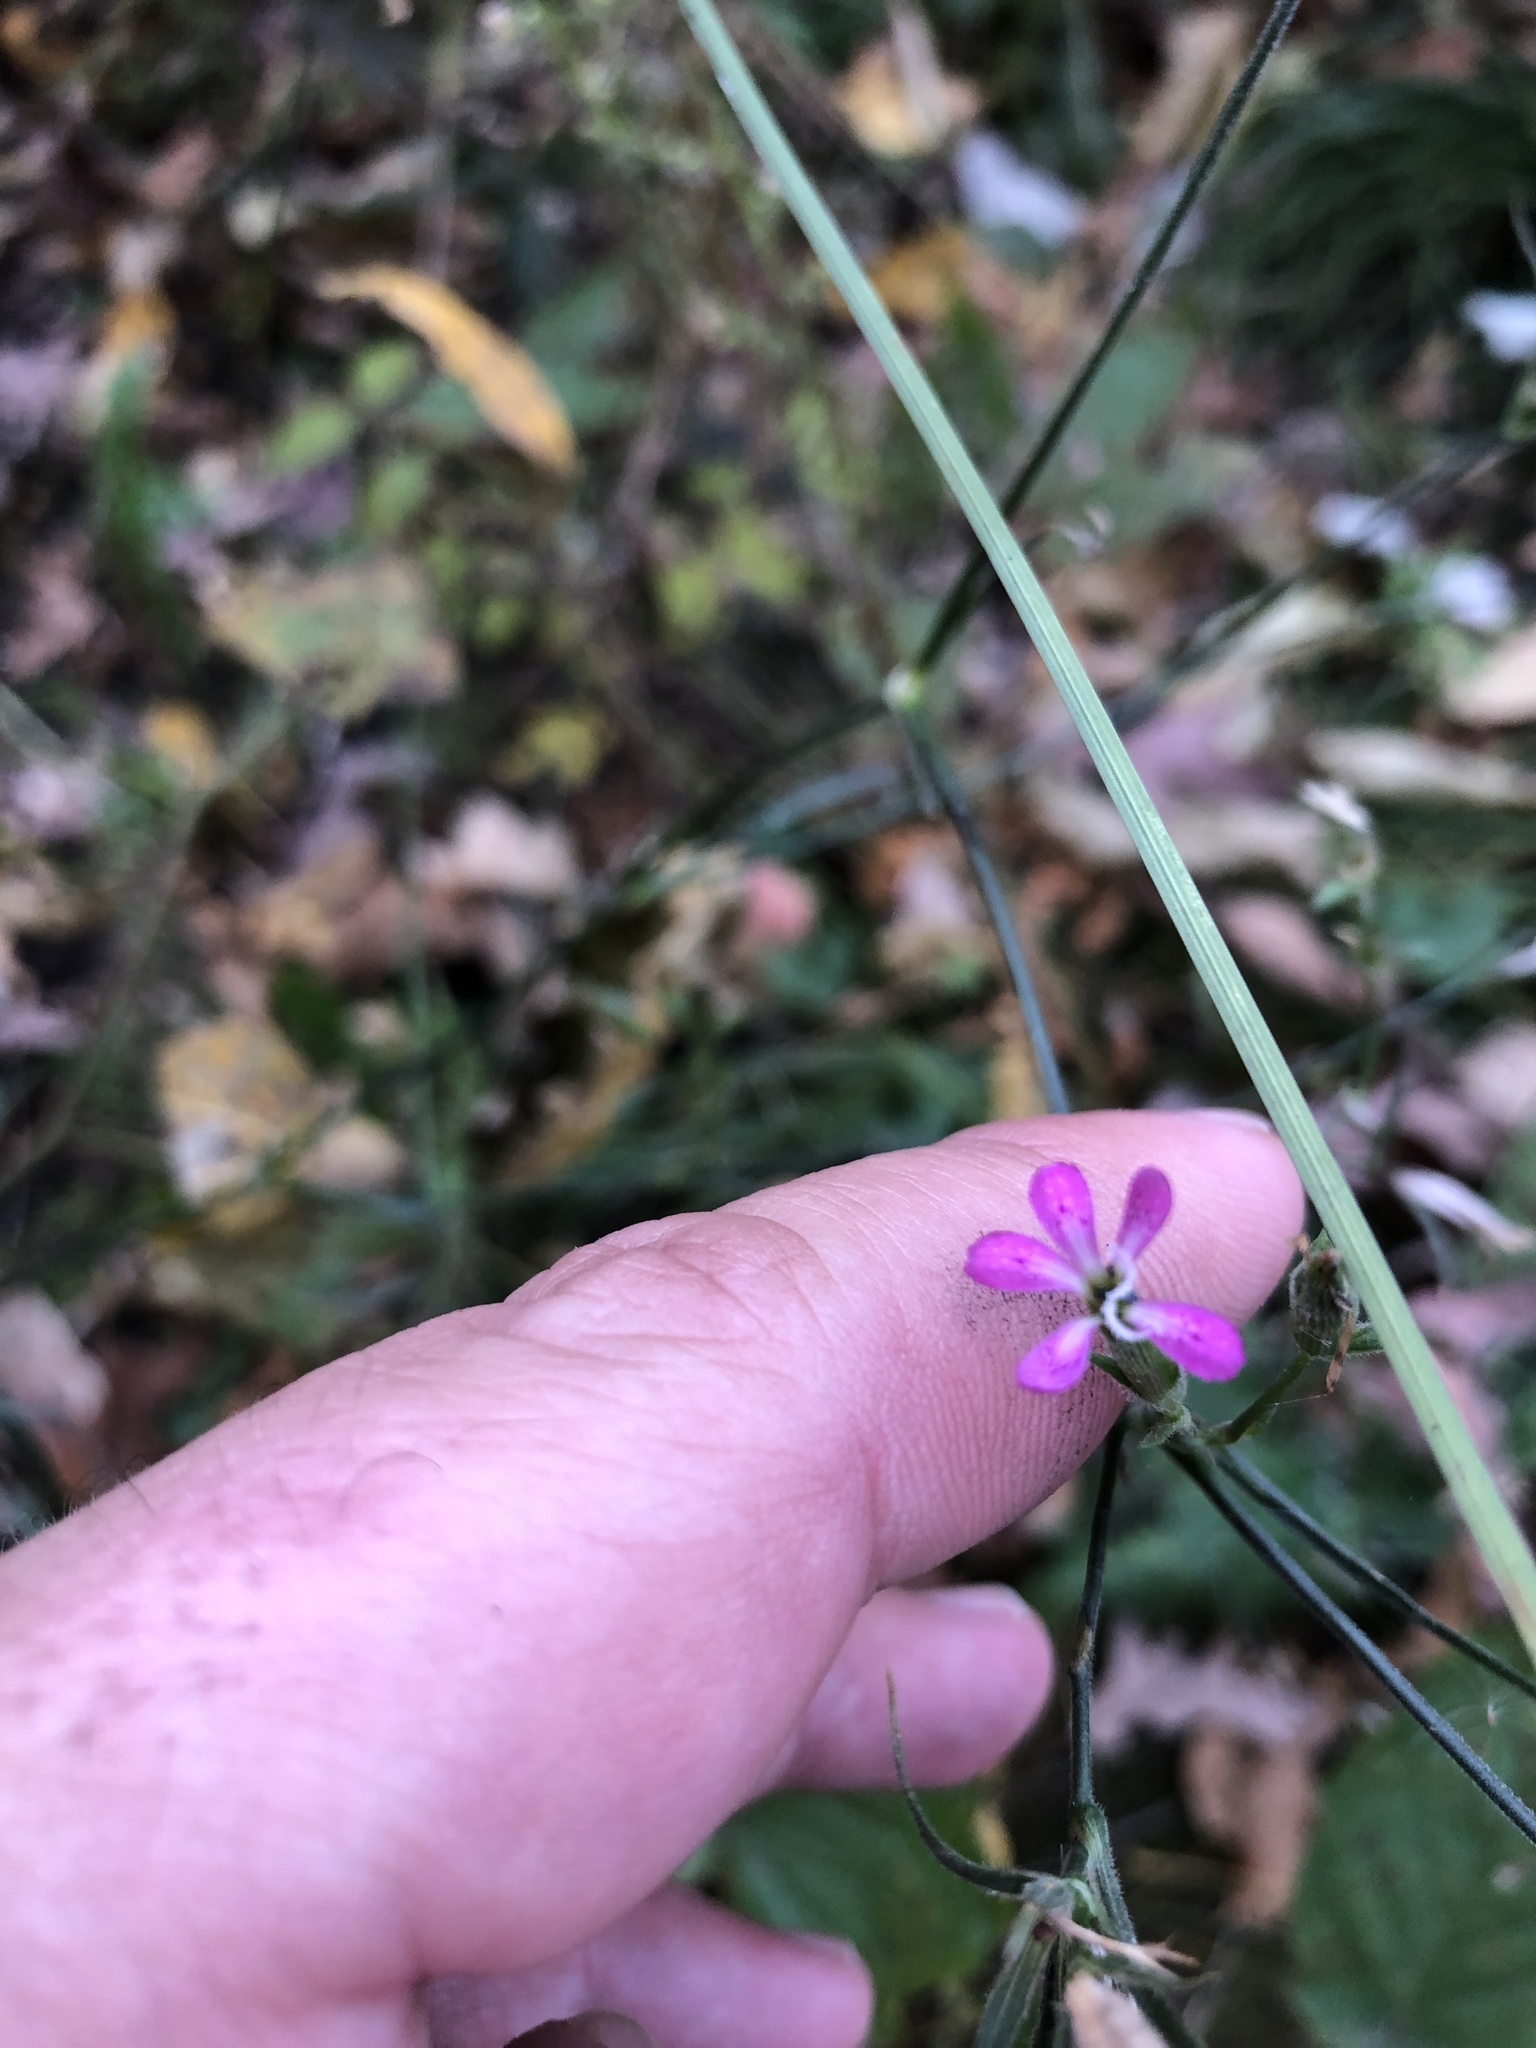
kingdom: Plantae
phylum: Tracheophyta
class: Magnoliopsida
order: Caryophyllales
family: Caryophyllaceae
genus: Dianthus
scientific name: Dianthus armeria
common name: Deptford pink
